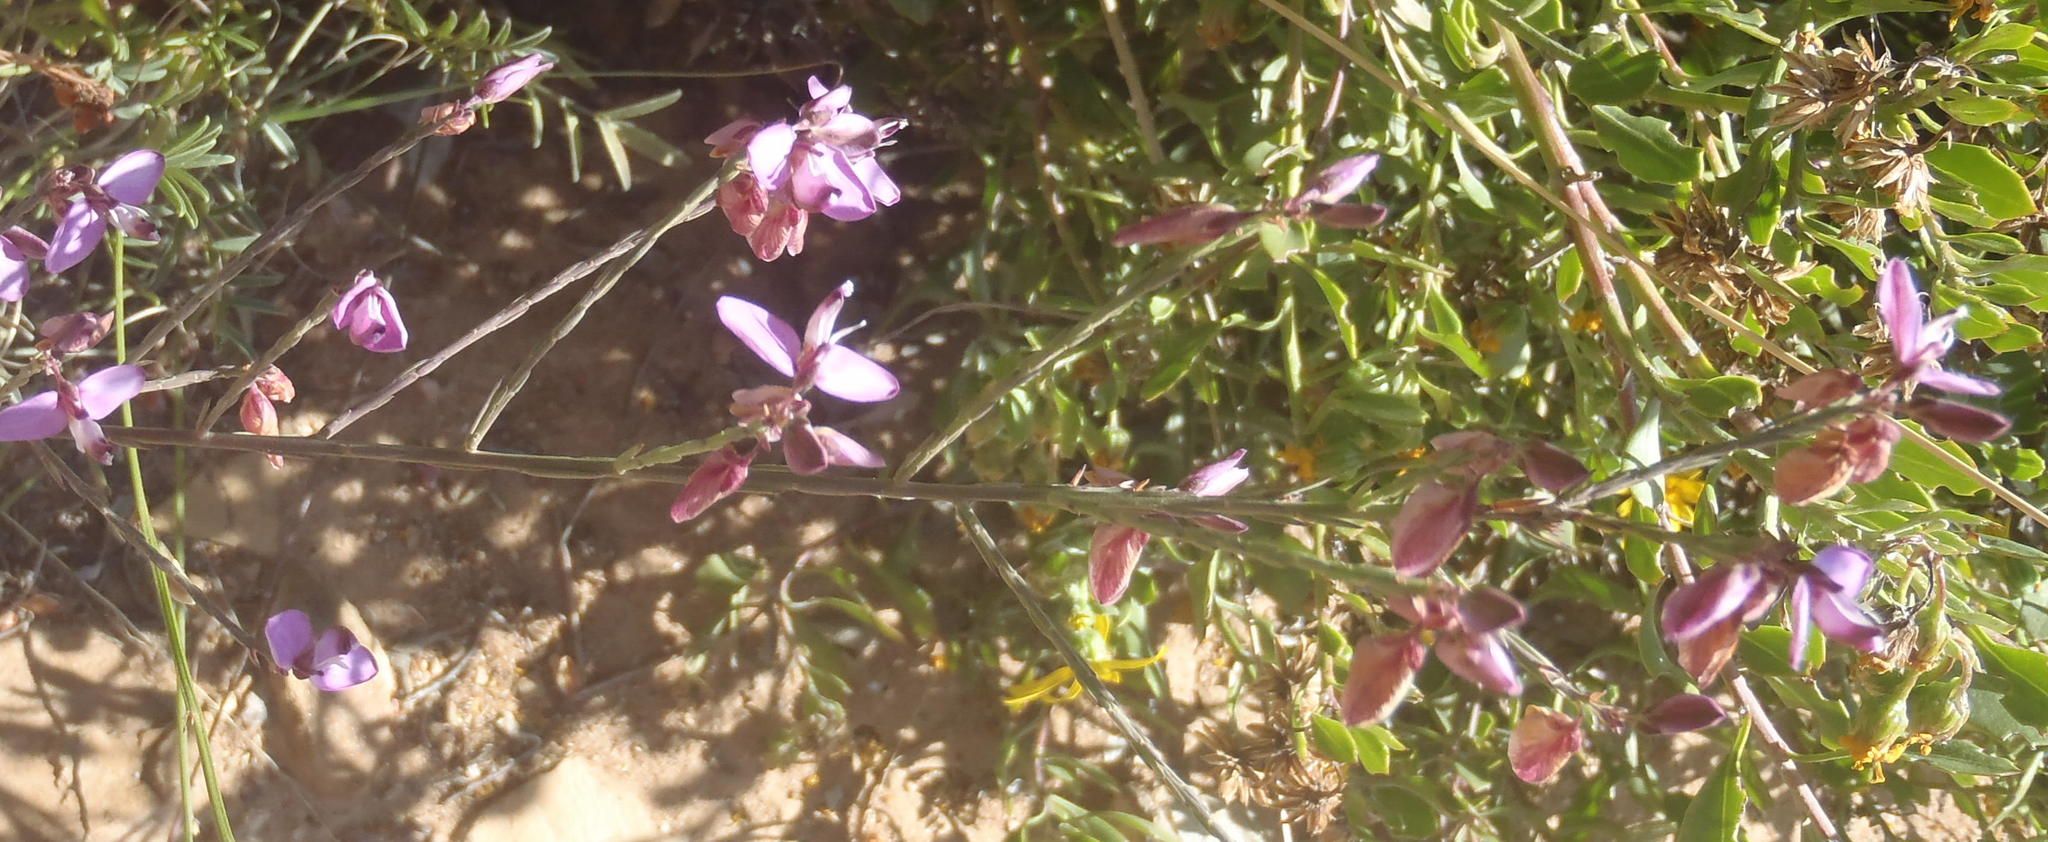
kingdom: Plantae
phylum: Tracheophyta
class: Magnoliopsida
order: Fabales
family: Polygalaceae
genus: Polygala
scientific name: Polygala microlopha
